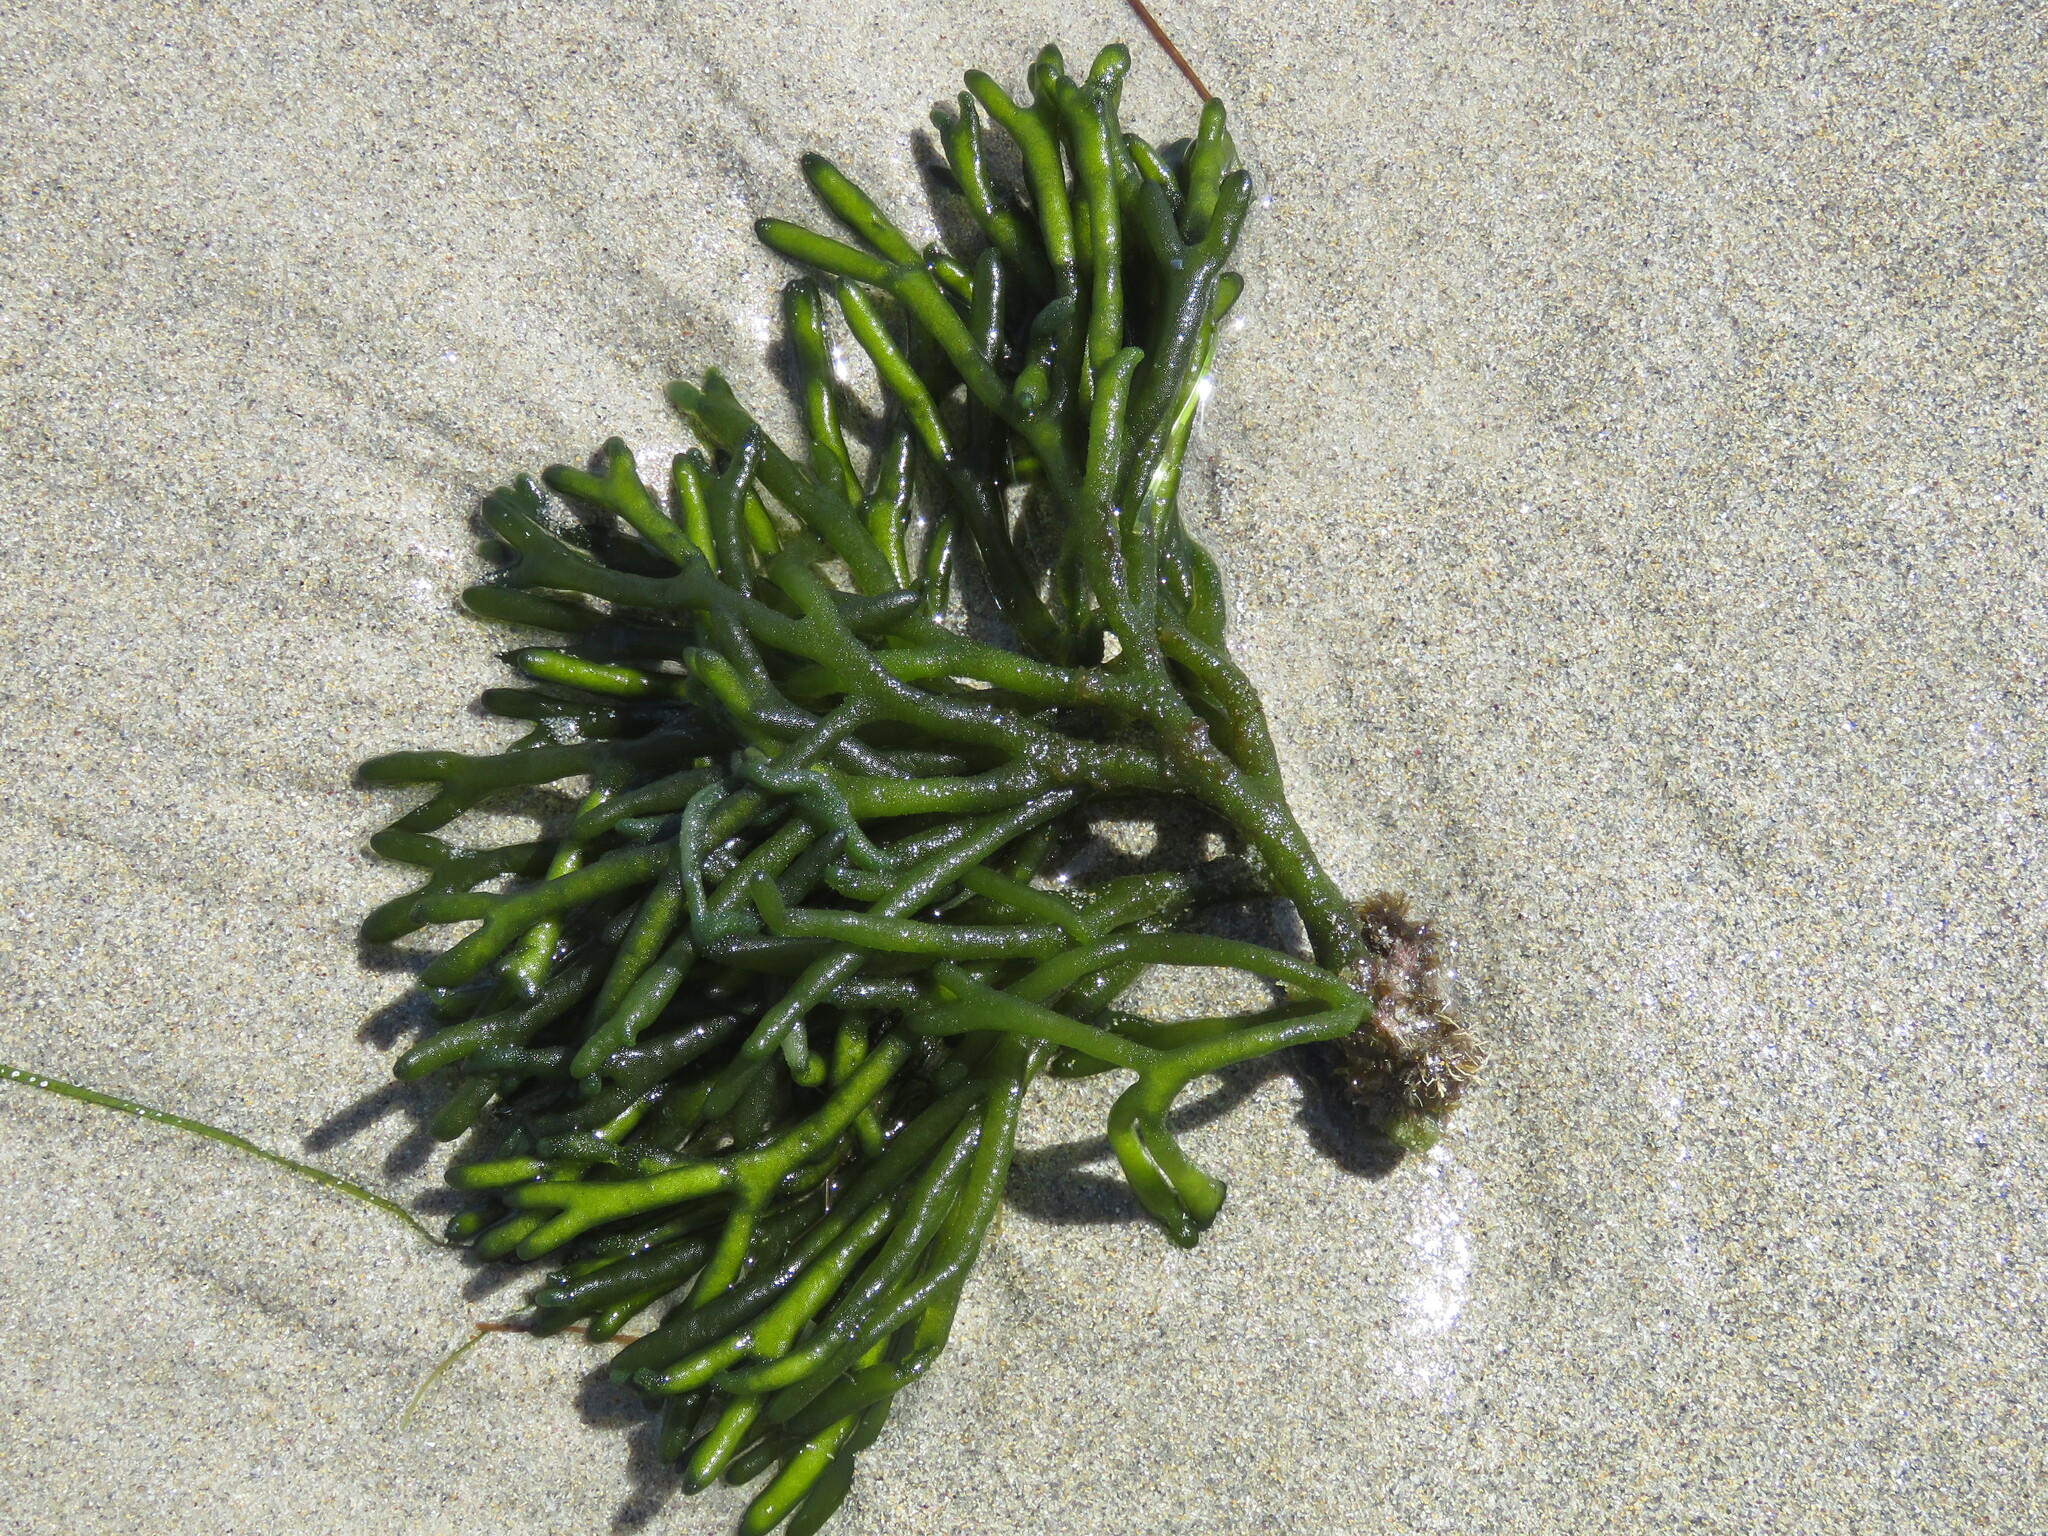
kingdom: Plantae
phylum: Chlorophyta
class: Ulvophyceae
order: Bryopsidales
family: Codiaceae
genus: Codium
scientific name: Codium fragile
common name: Dead man's fingers
